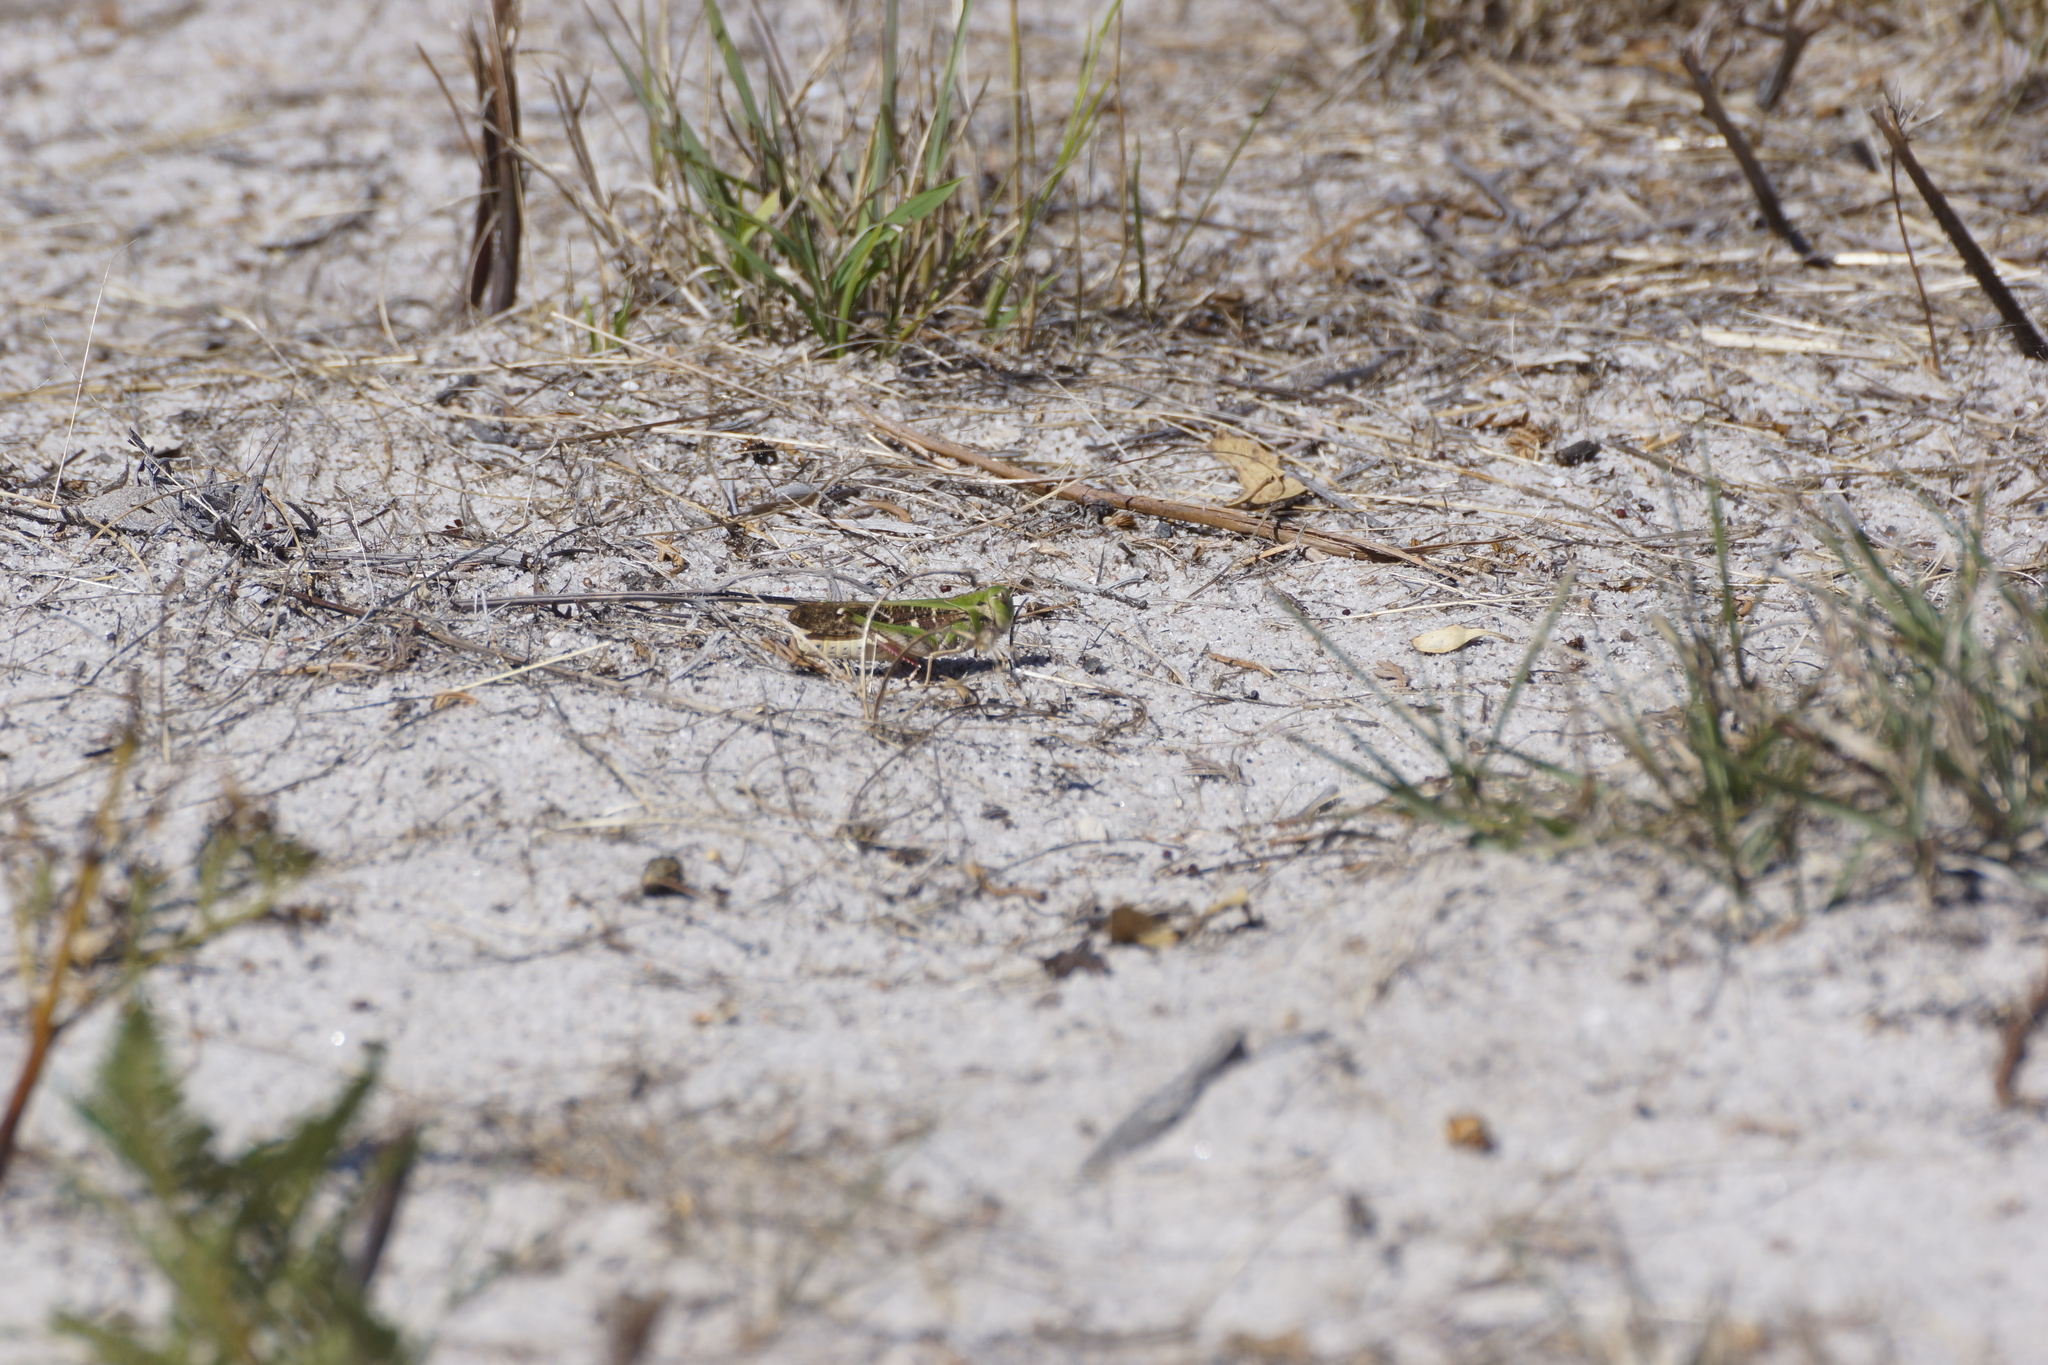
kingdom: Animalia
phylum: Arthropoda
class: Insecta
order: Orthoptera
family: Acrididae
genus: Gastrimargus
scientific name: Gastrimargus musicus
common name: Yellow-winged locust
